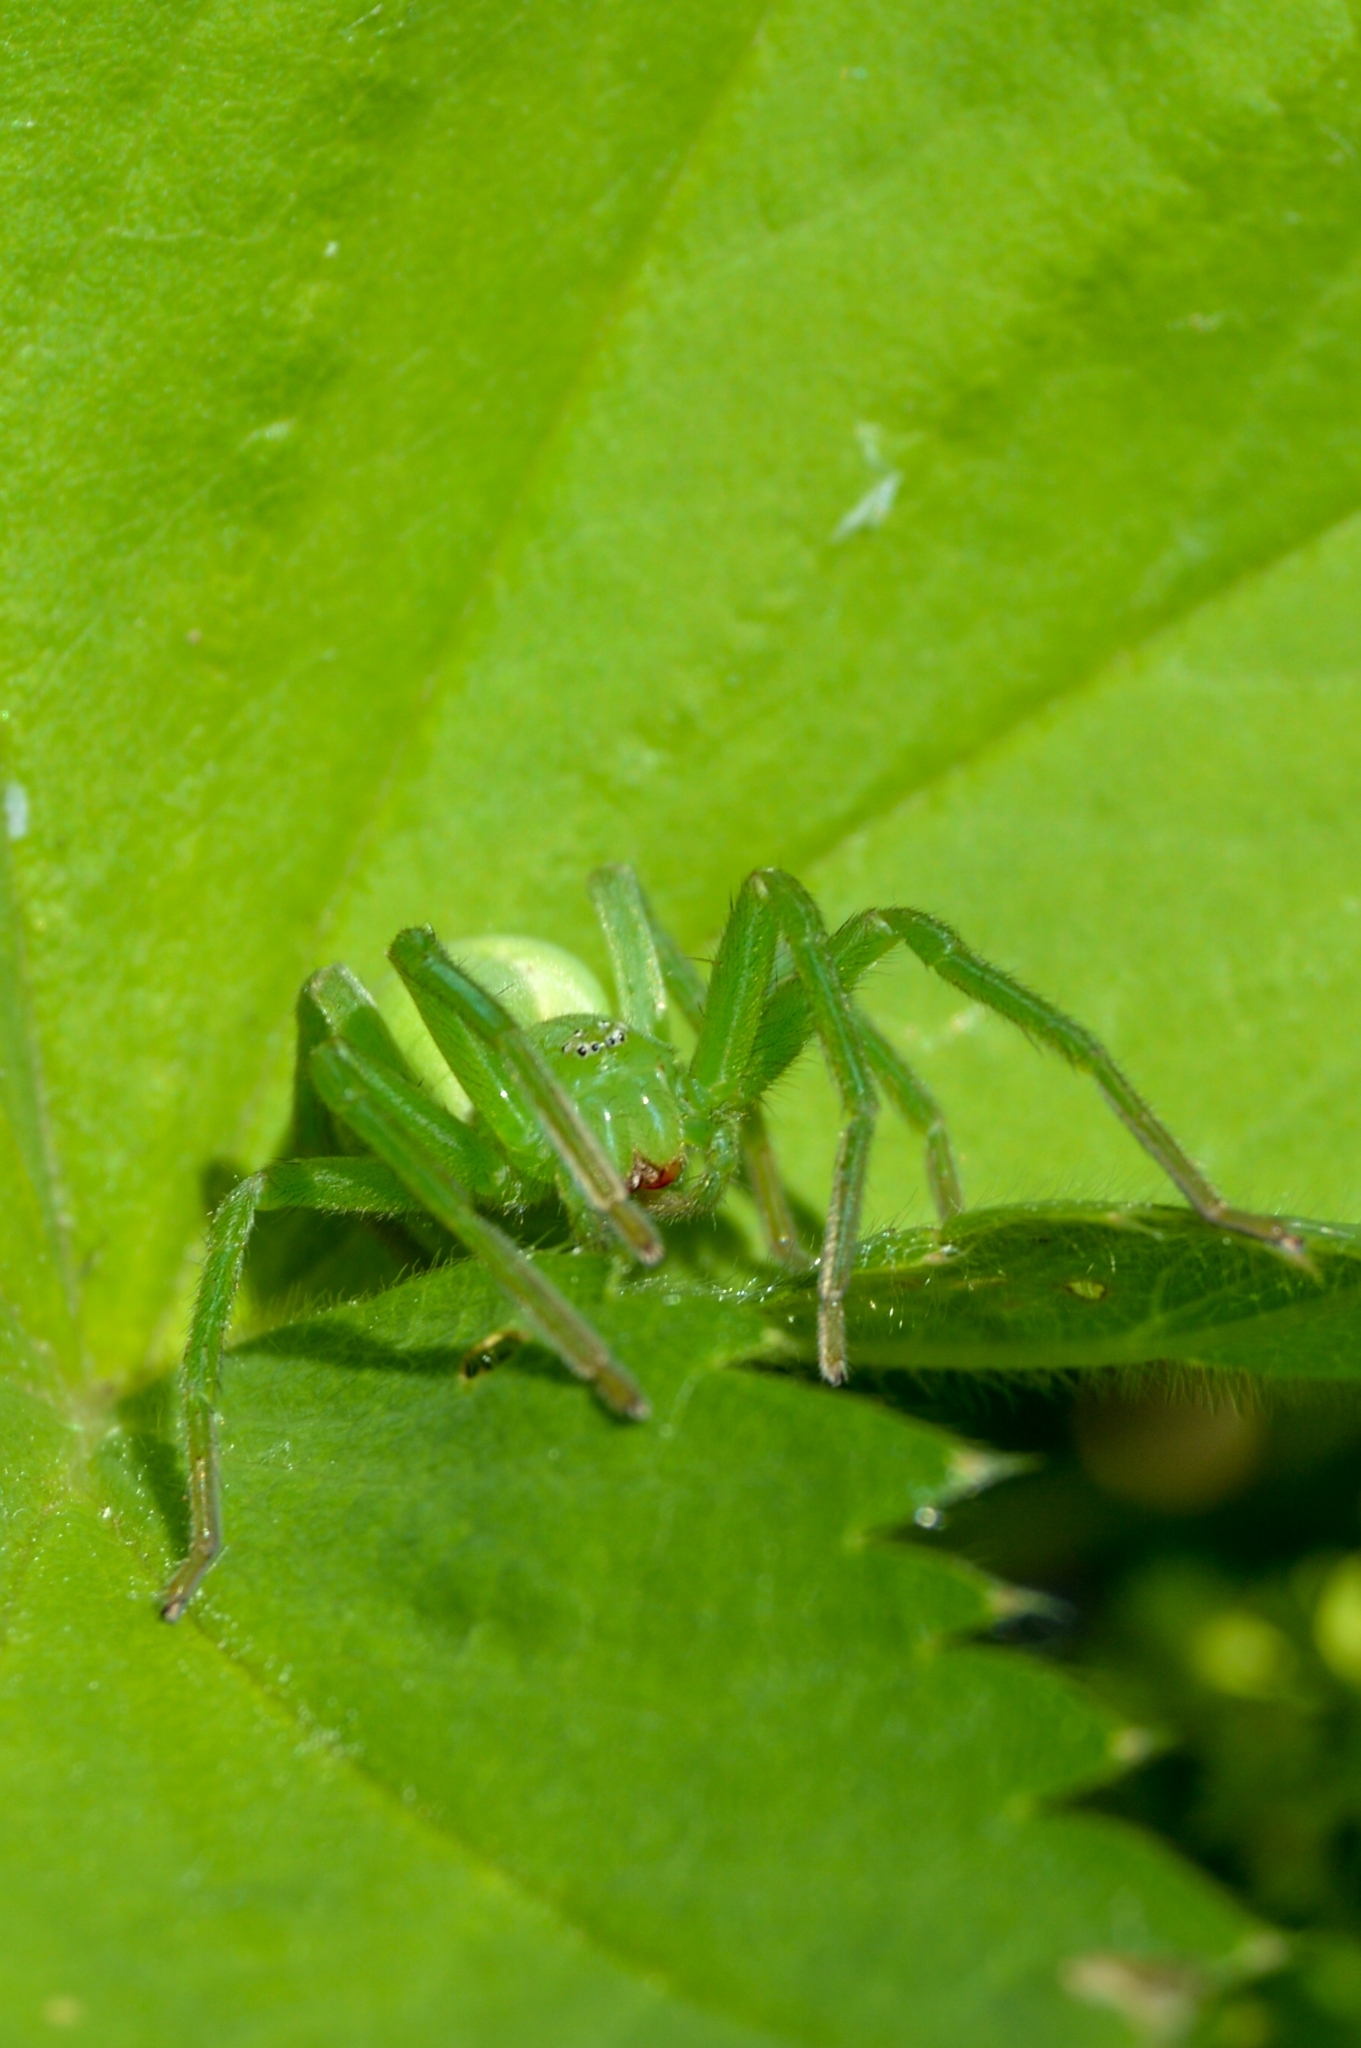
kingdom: Animalia
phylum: Arthropoda
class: Arachnida
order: Araneae
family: Sparassidae
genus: Micrommata
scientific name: Micrommata virescens
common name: Green spider
